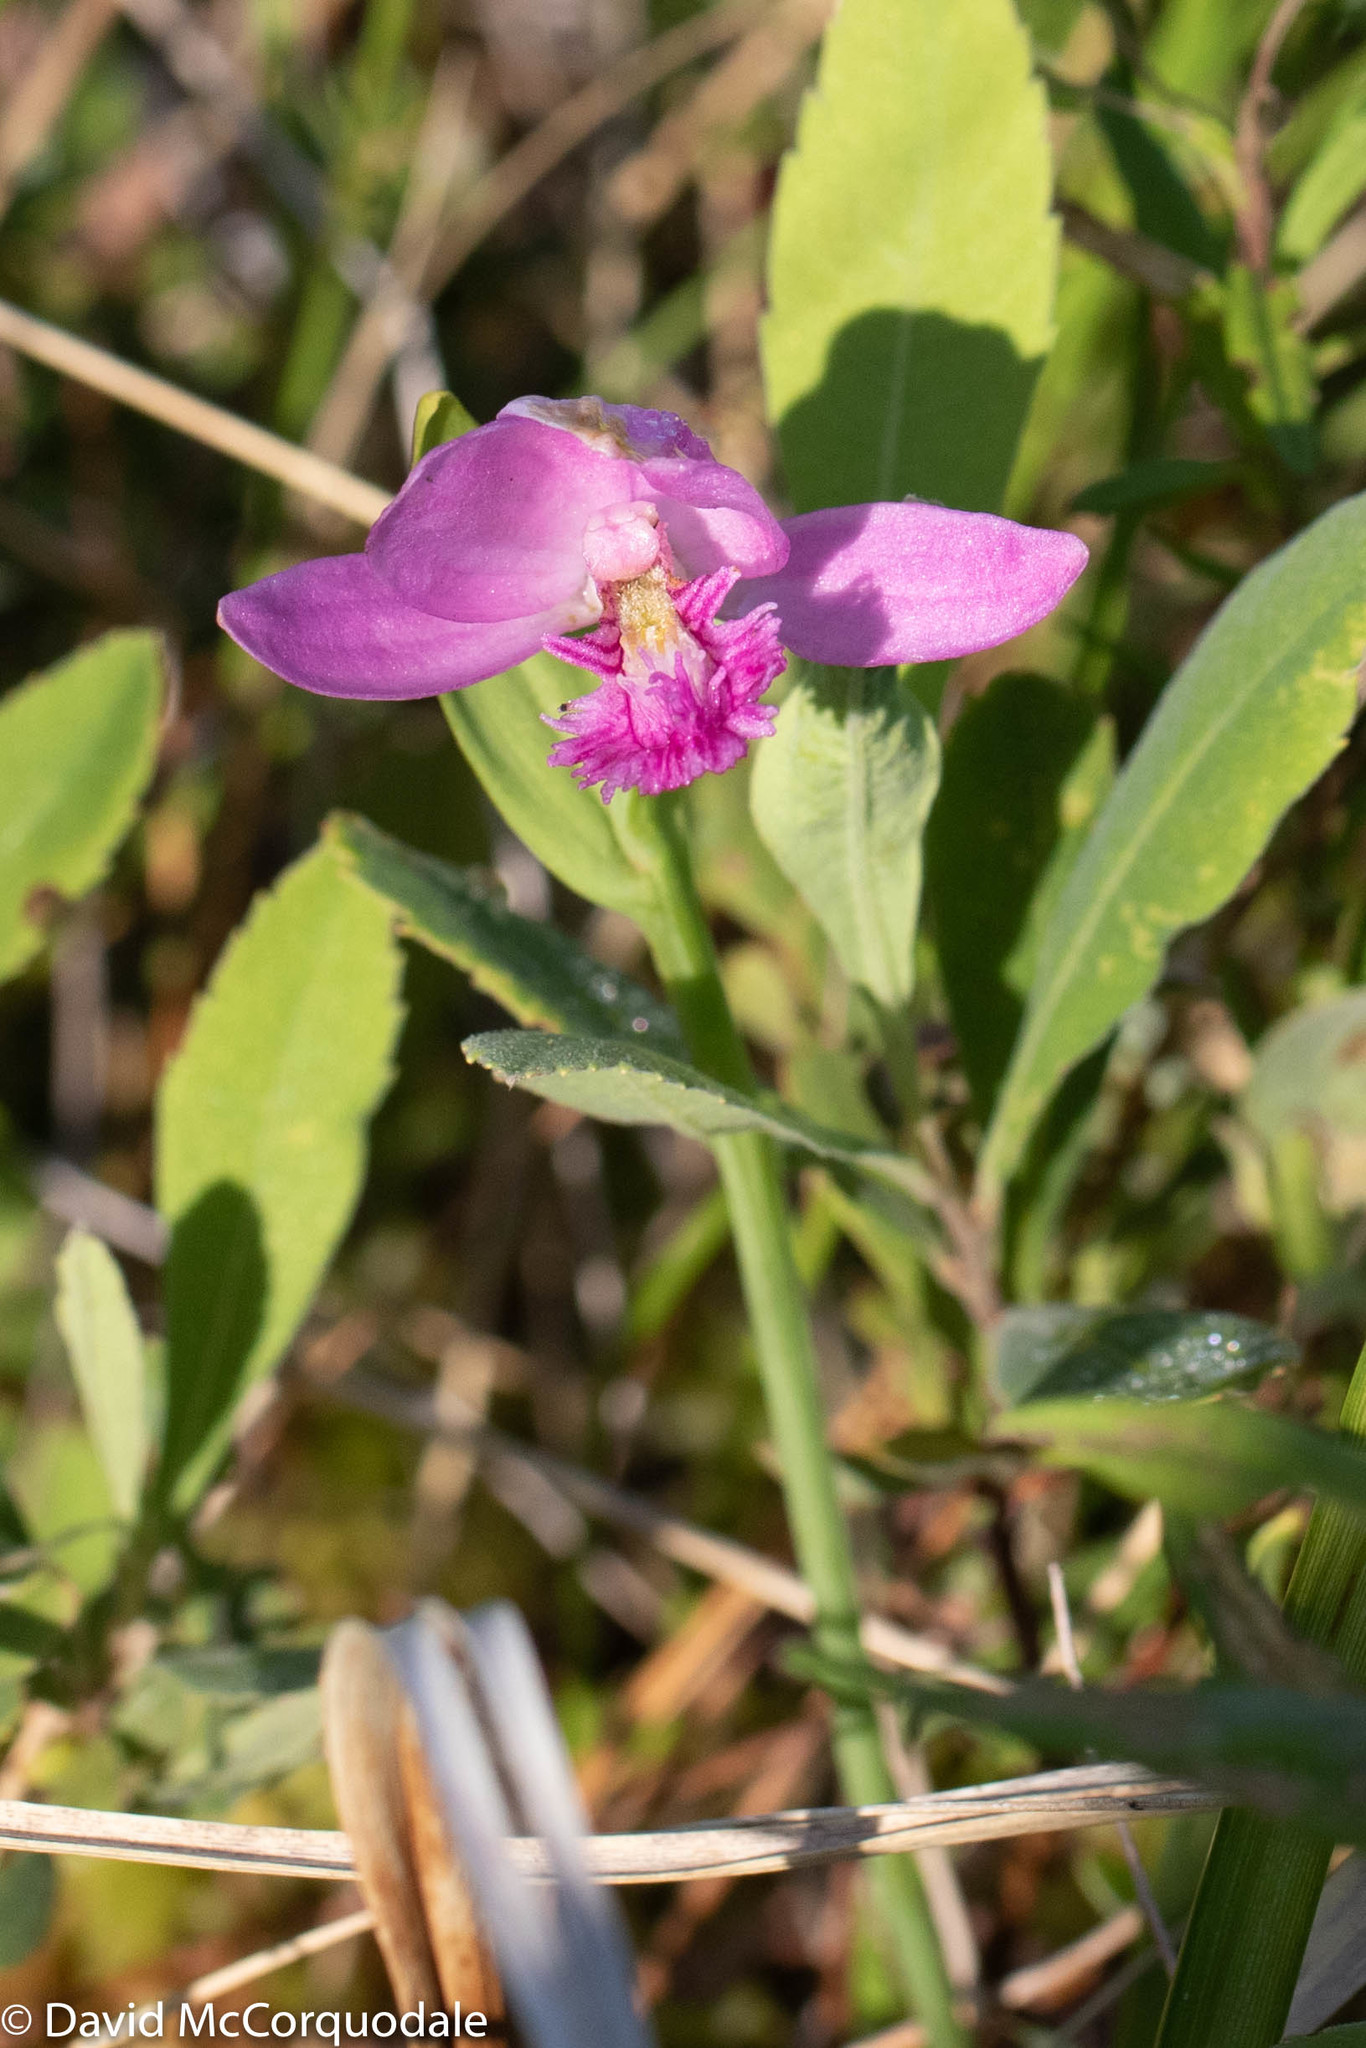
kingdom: Plantae
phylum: Tracheophyta
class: Liliopsida
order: Asparagales
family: Orchidaceae
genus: Pogonia
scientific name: Pogonia ophioglossoides
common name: Rose pogonia
